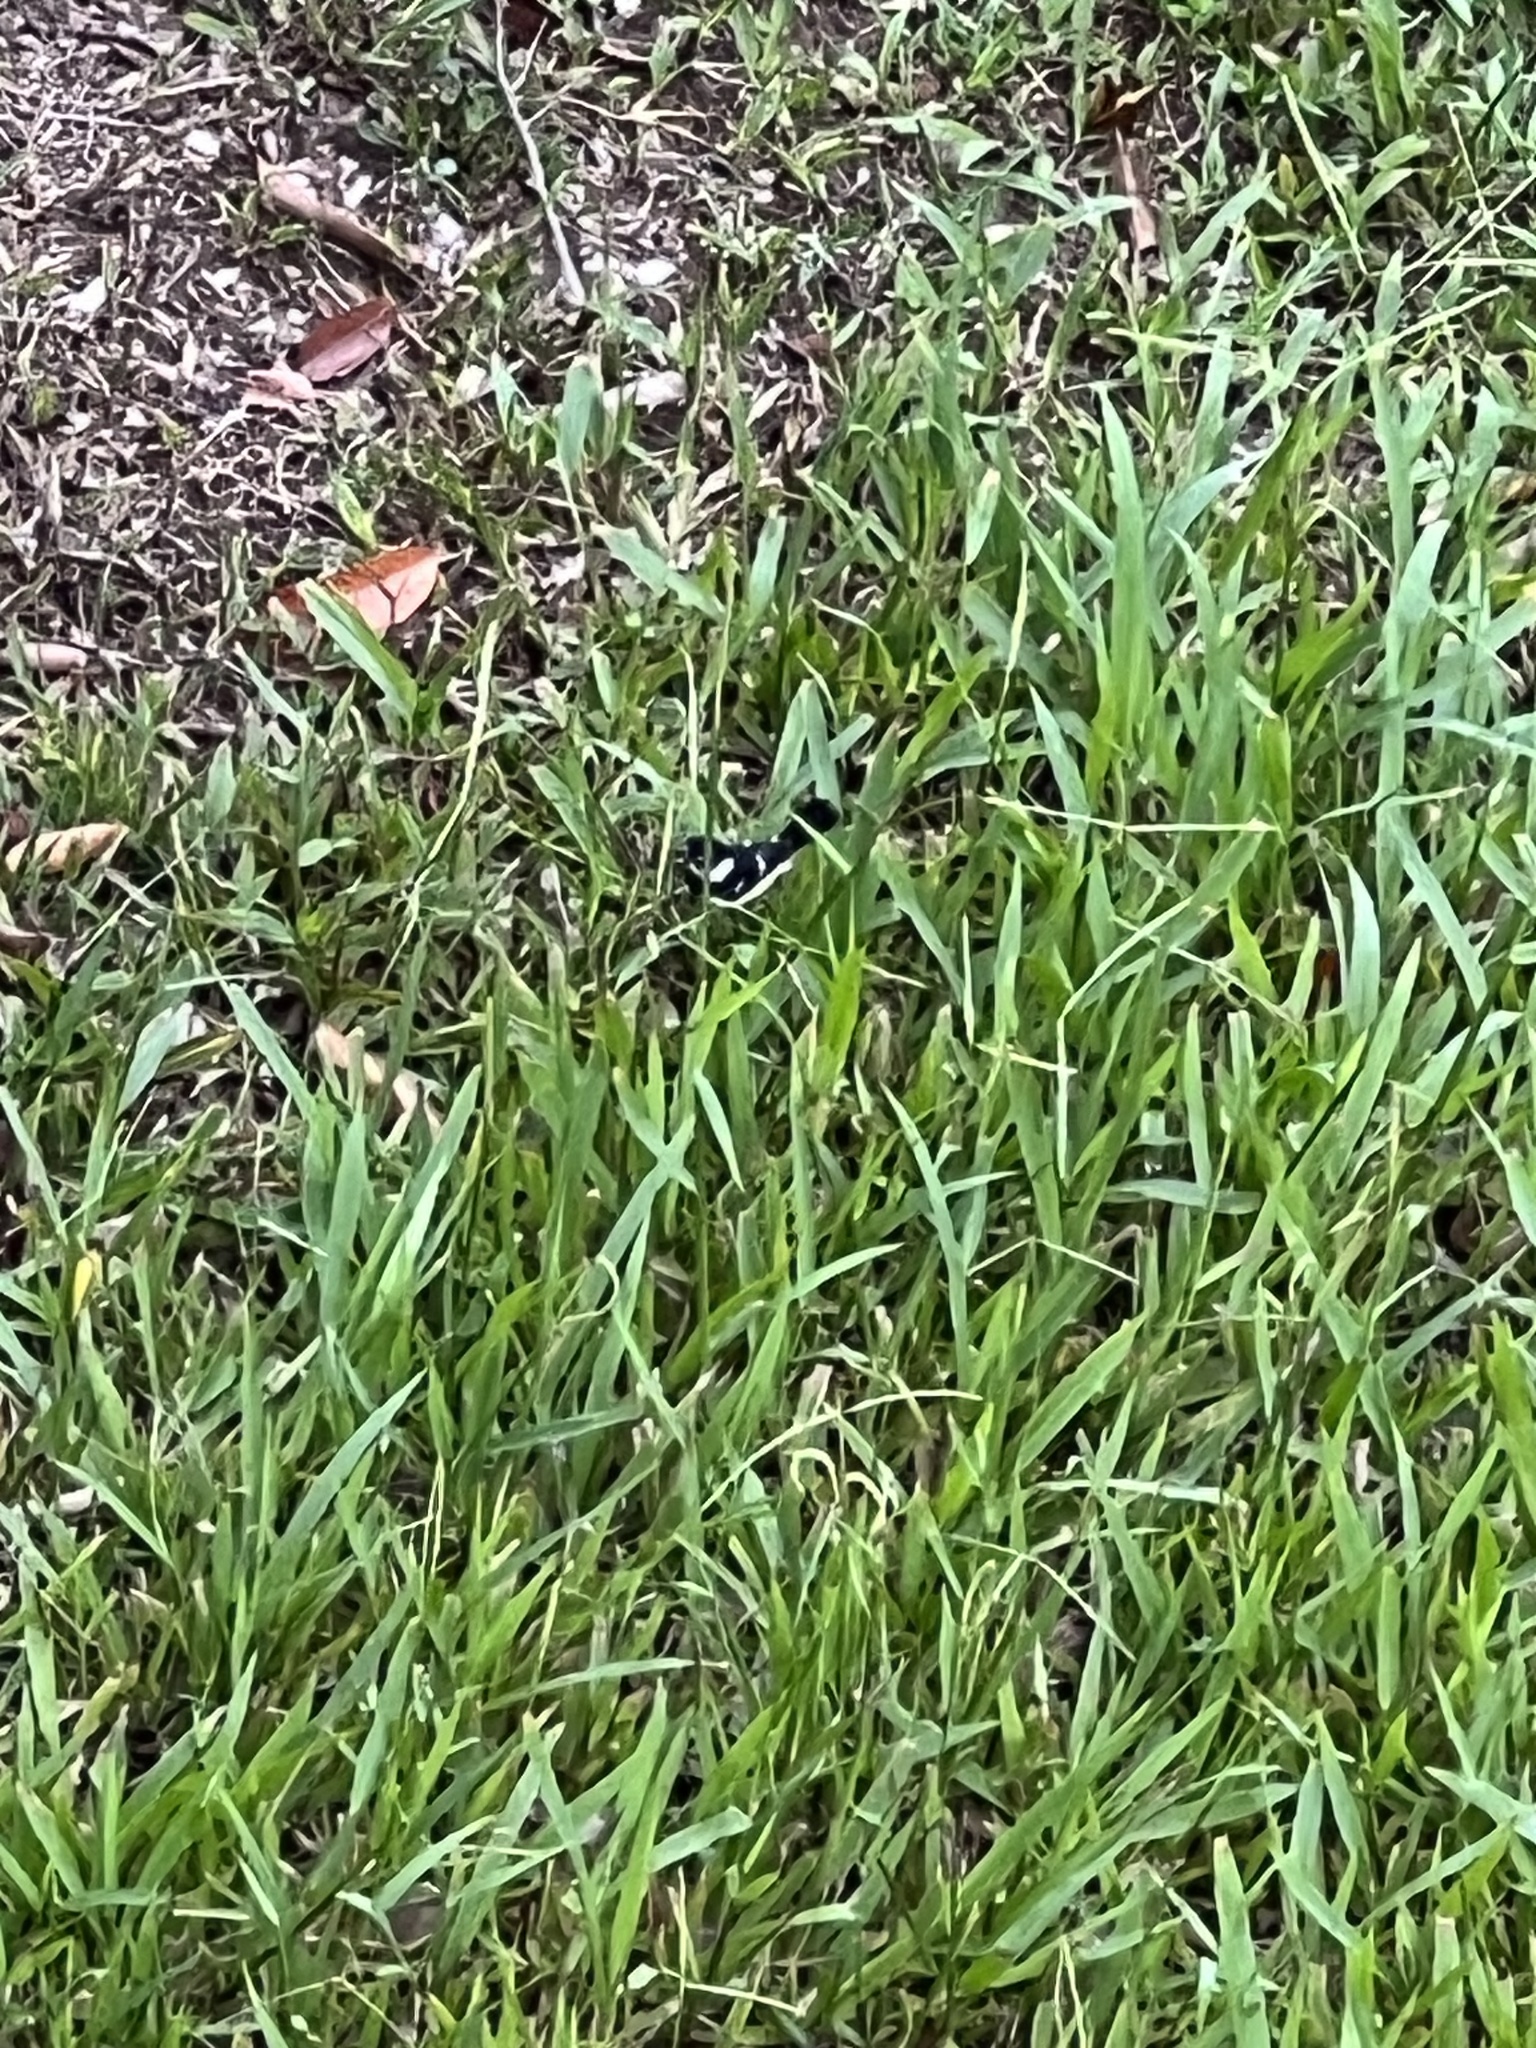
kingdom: Animalia
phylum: Chordata
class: Aves
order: Passeriformes
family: Thraupidae
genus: Sporophila
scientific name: Sporophila morelleti
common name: Morelet's seedeater
